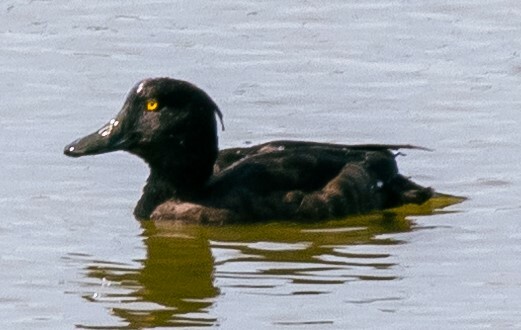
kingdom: Animalia
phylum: Chordata
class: Aves
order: Anseriformes
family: Anatidae
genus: Aythya
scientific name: Aythya fuligula
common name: Tufted duck
